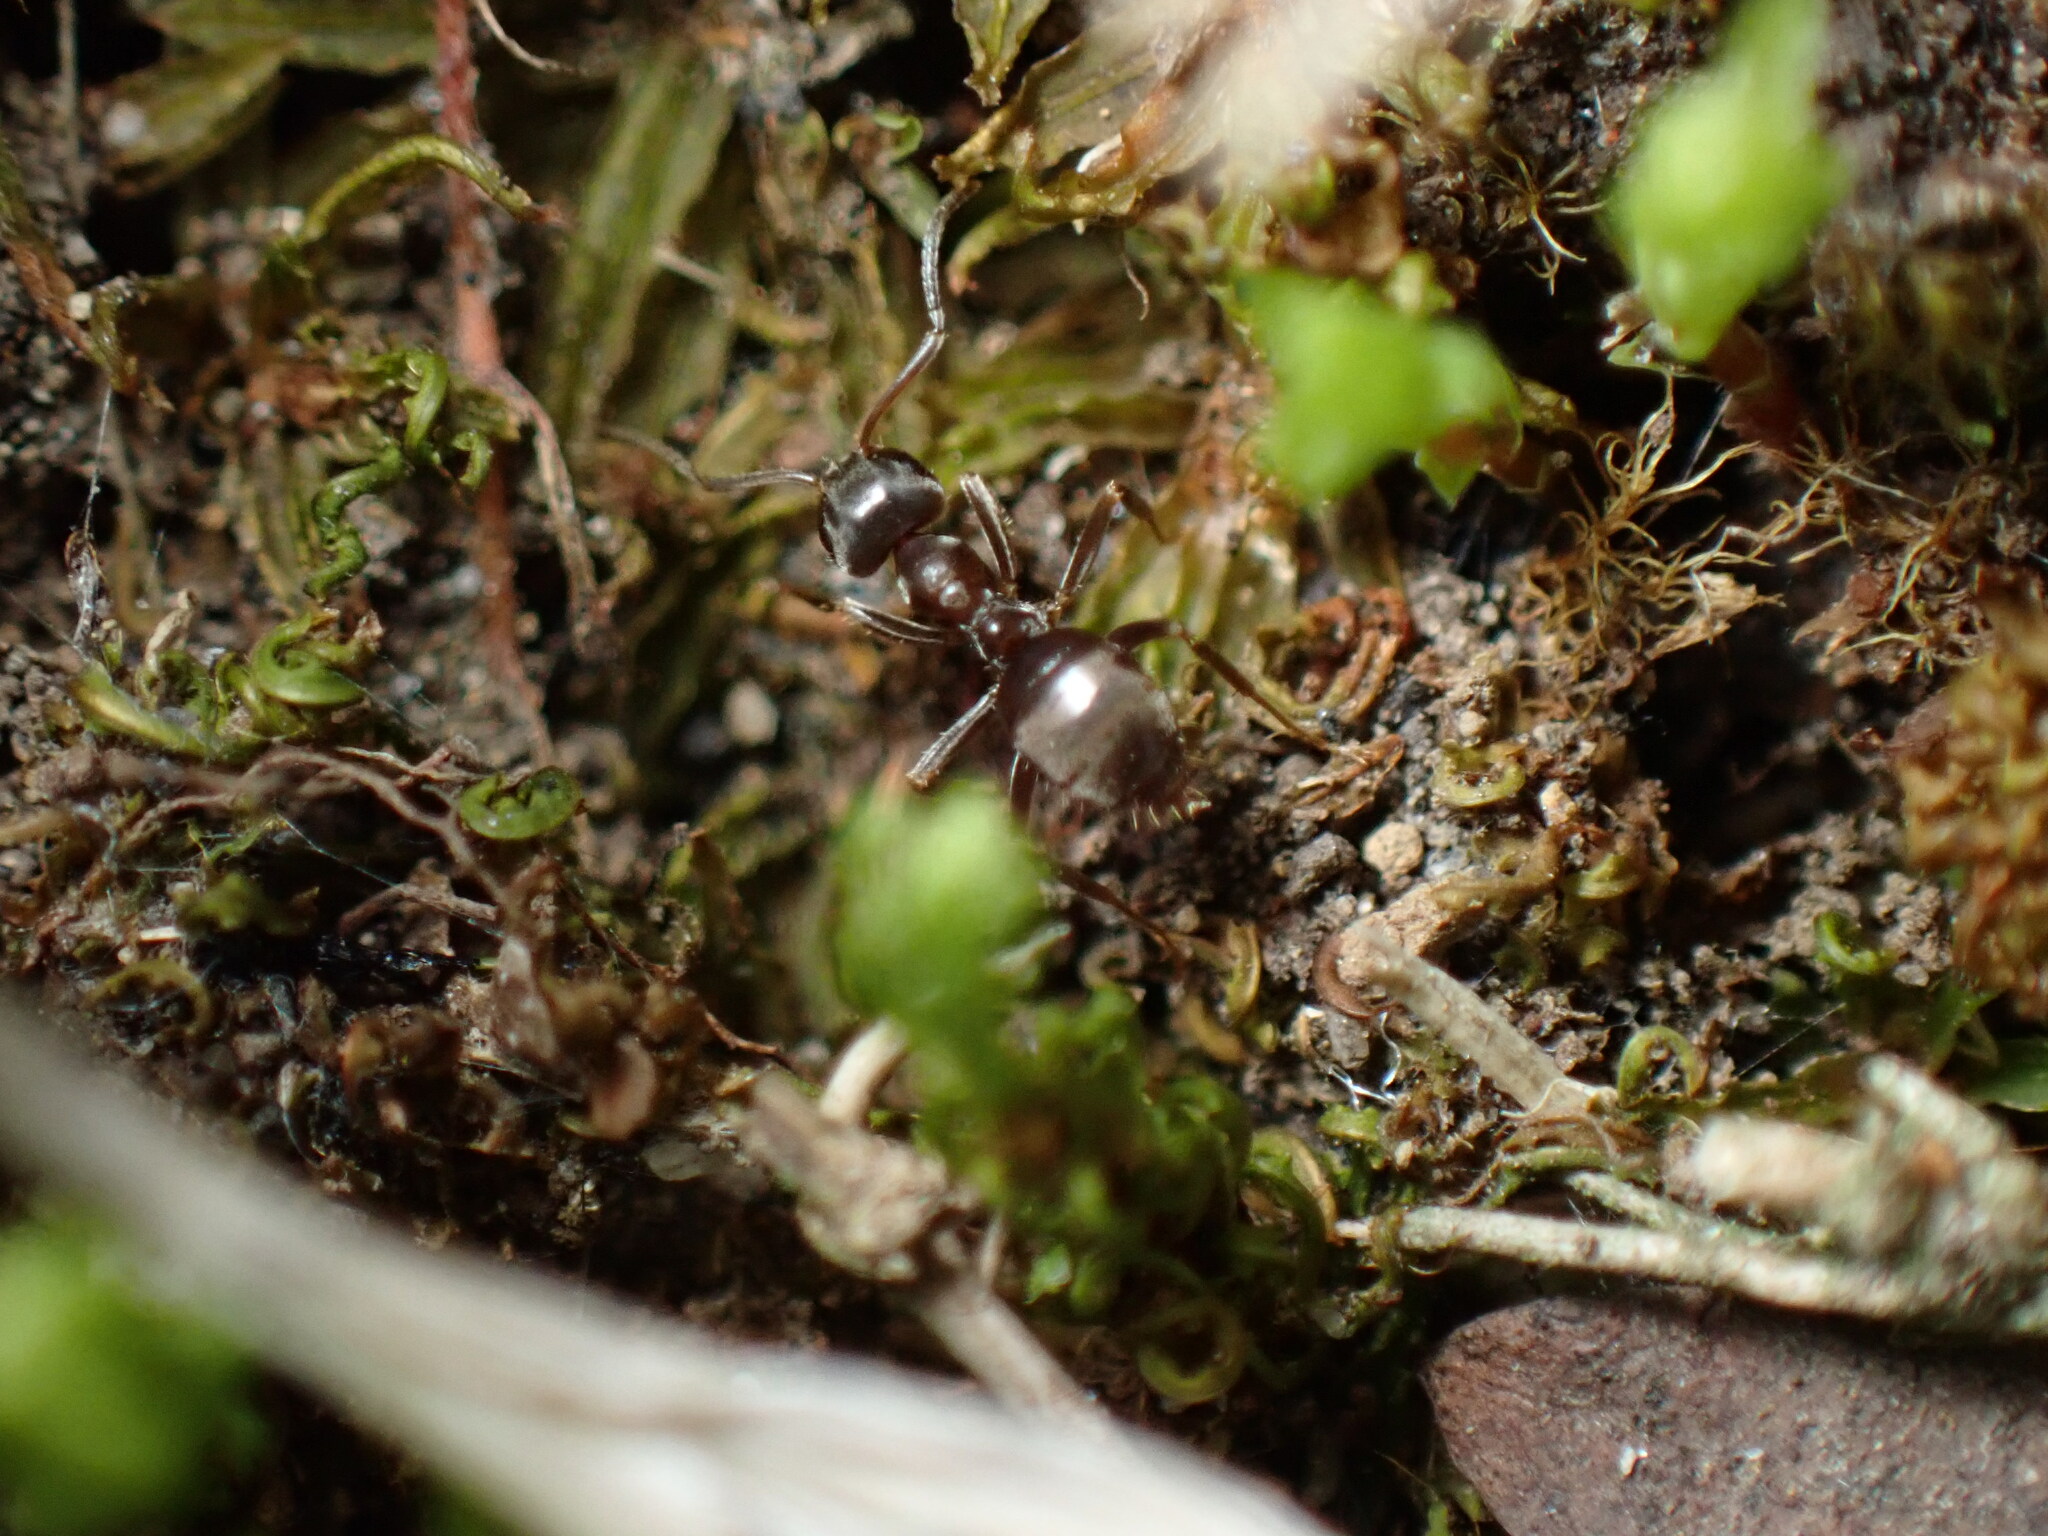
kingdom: Animalia
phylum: Arthropoda
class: Insecta
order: Hymenoptera
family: Formicidae
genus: Lasius
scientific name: Lasius japonicus
